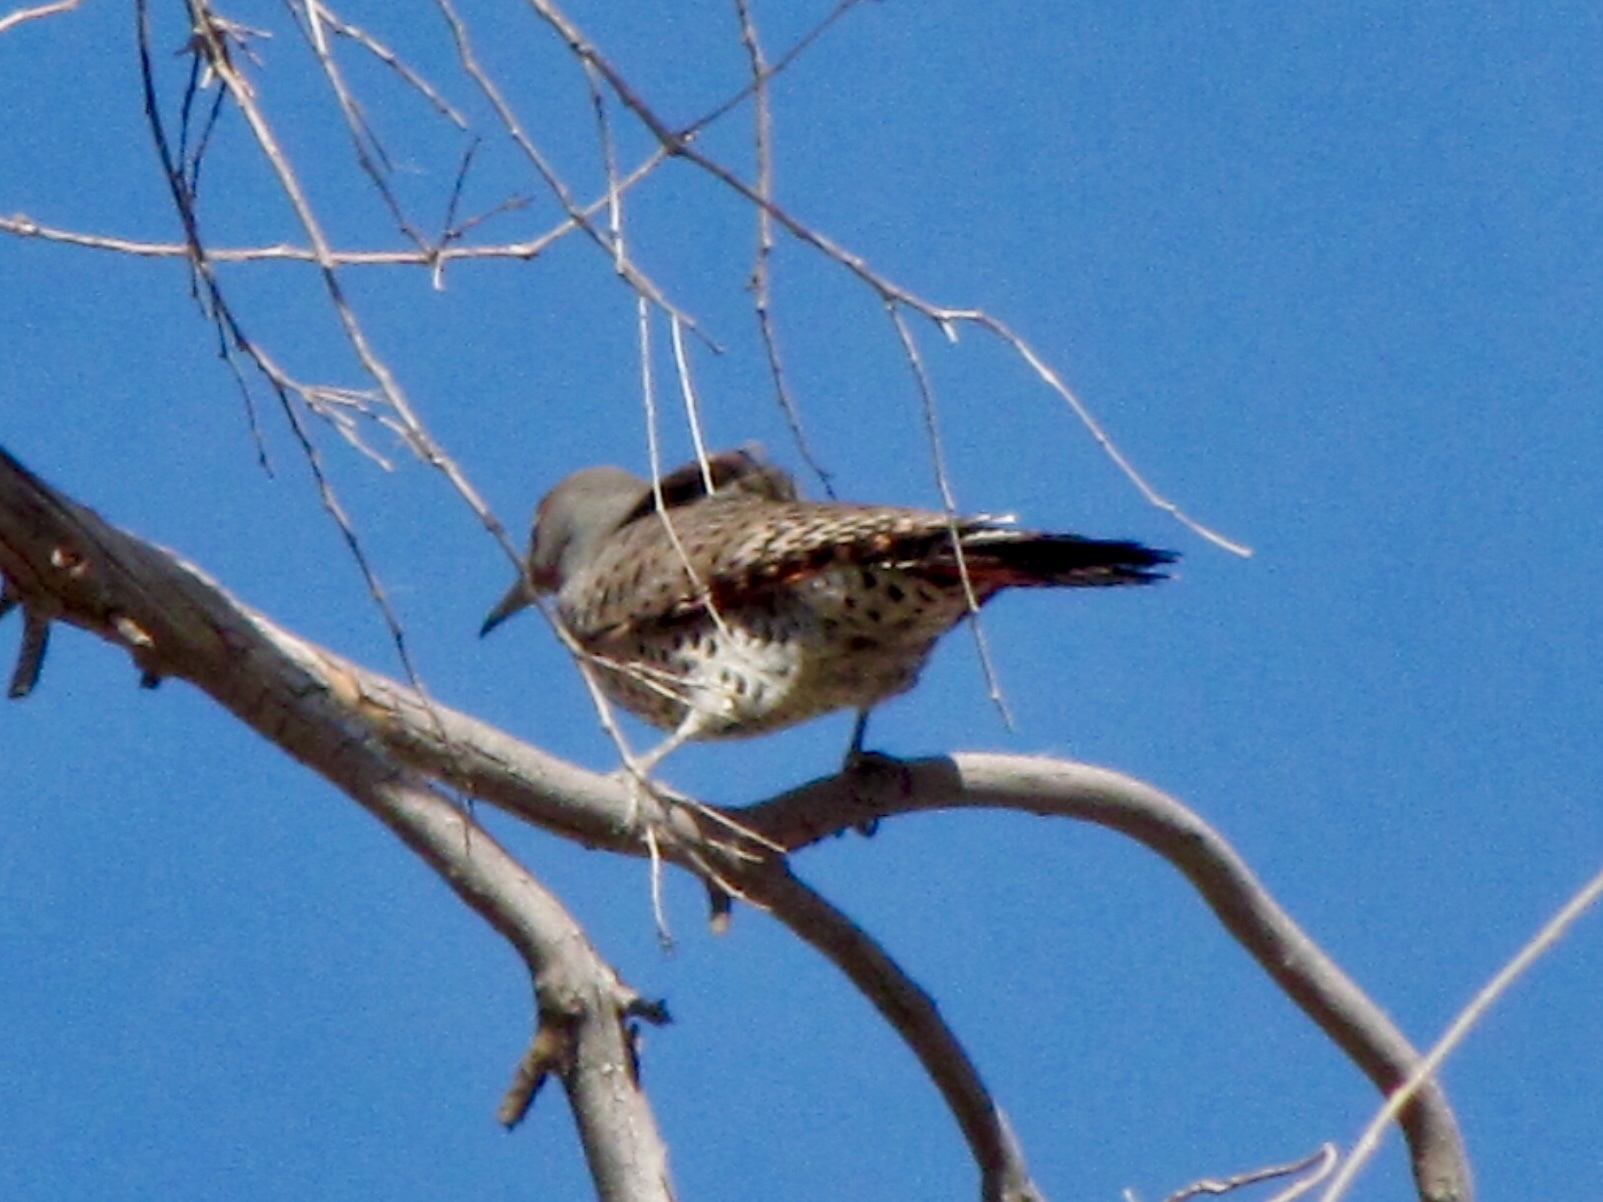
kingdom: Animalia
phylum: Chordata
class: Aves
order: Piciformes
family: Picidae
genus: Colaptes
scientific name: Colaptes auratus
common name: Northern flicker
